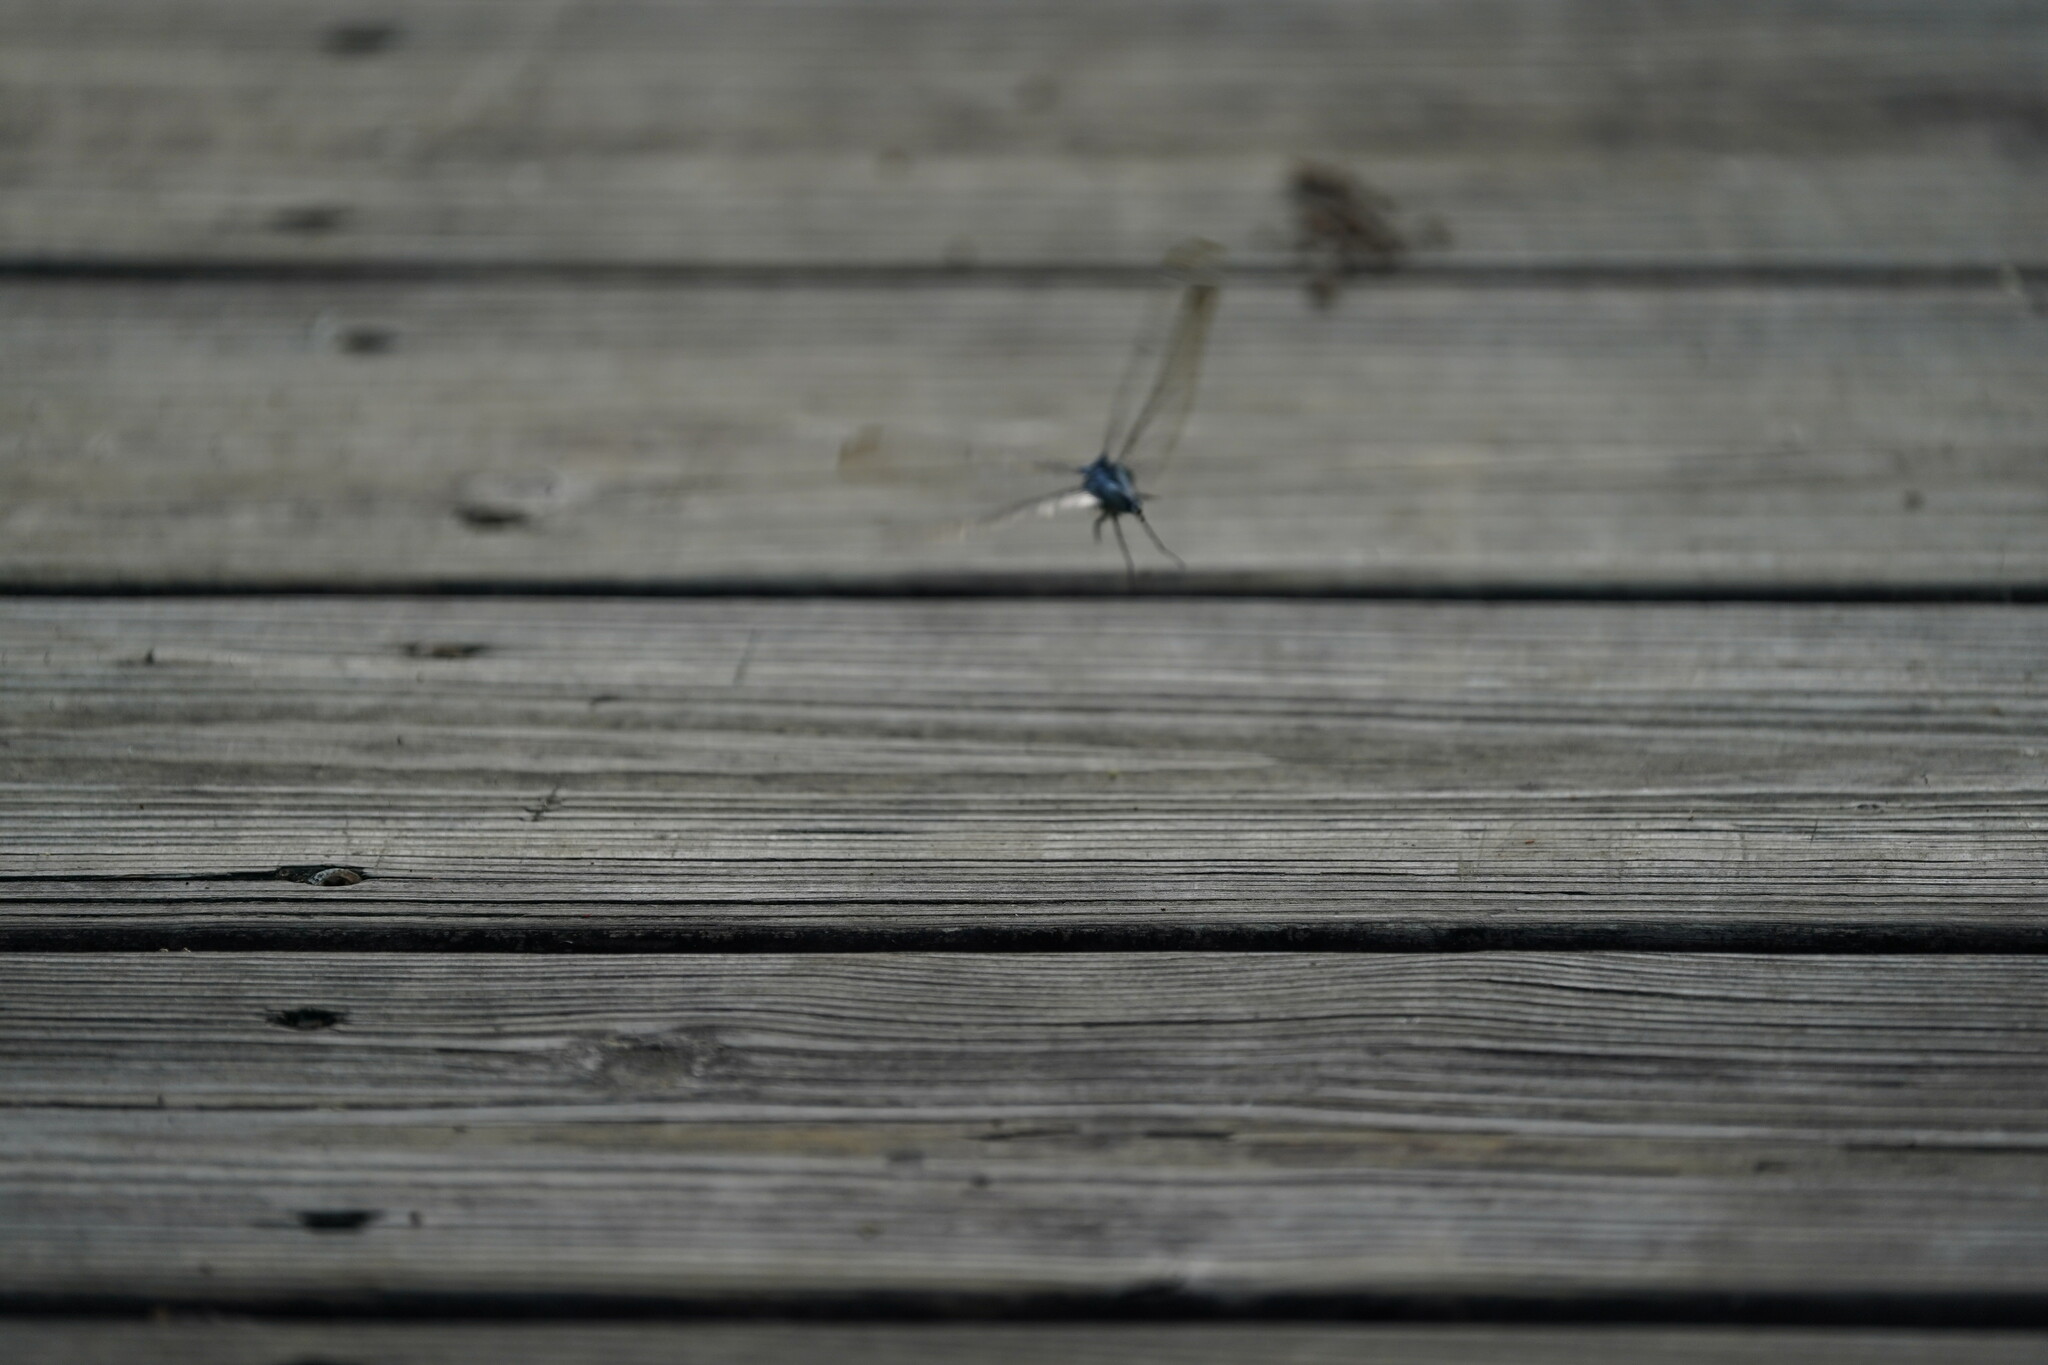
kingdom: Animalia
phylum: Arthropoda
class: Insecta
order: Odonata
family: Libellulidae
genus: Erythemis
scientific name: Erythemis simplicicollis
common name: Eastern pondhawk
